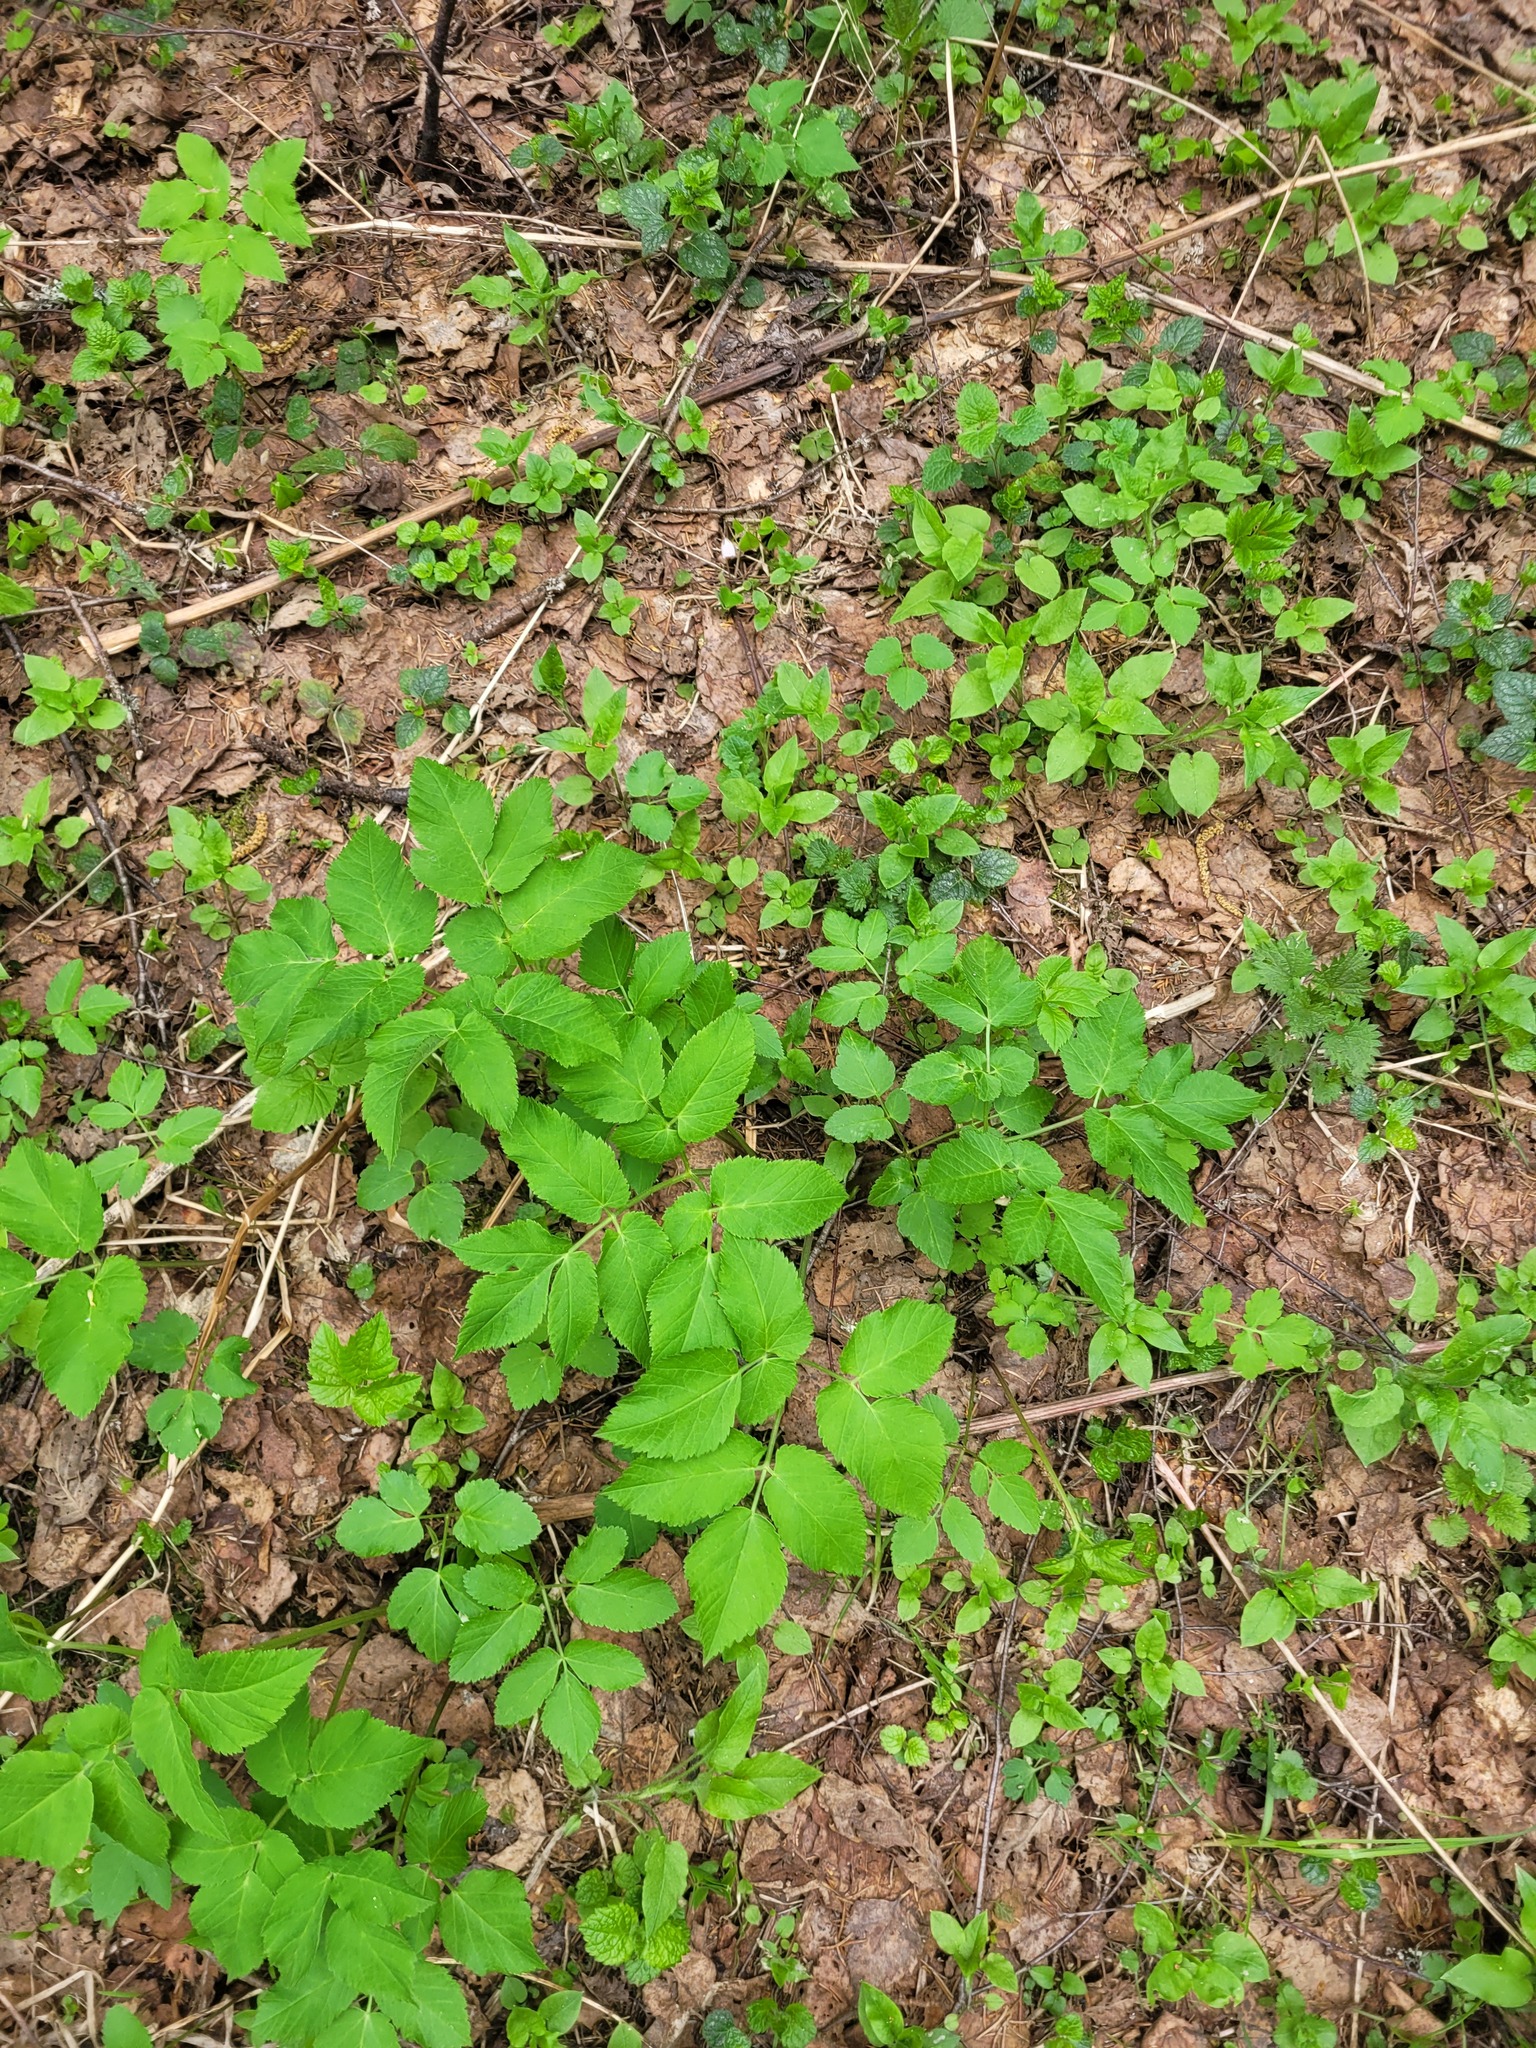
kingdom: Plantae
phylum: Tracheophyta
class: Magnoliopsida
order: Apiales
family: Apiaceae
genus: Aegopodium
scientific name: Aegopodium podagraria
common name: Ground-elder
